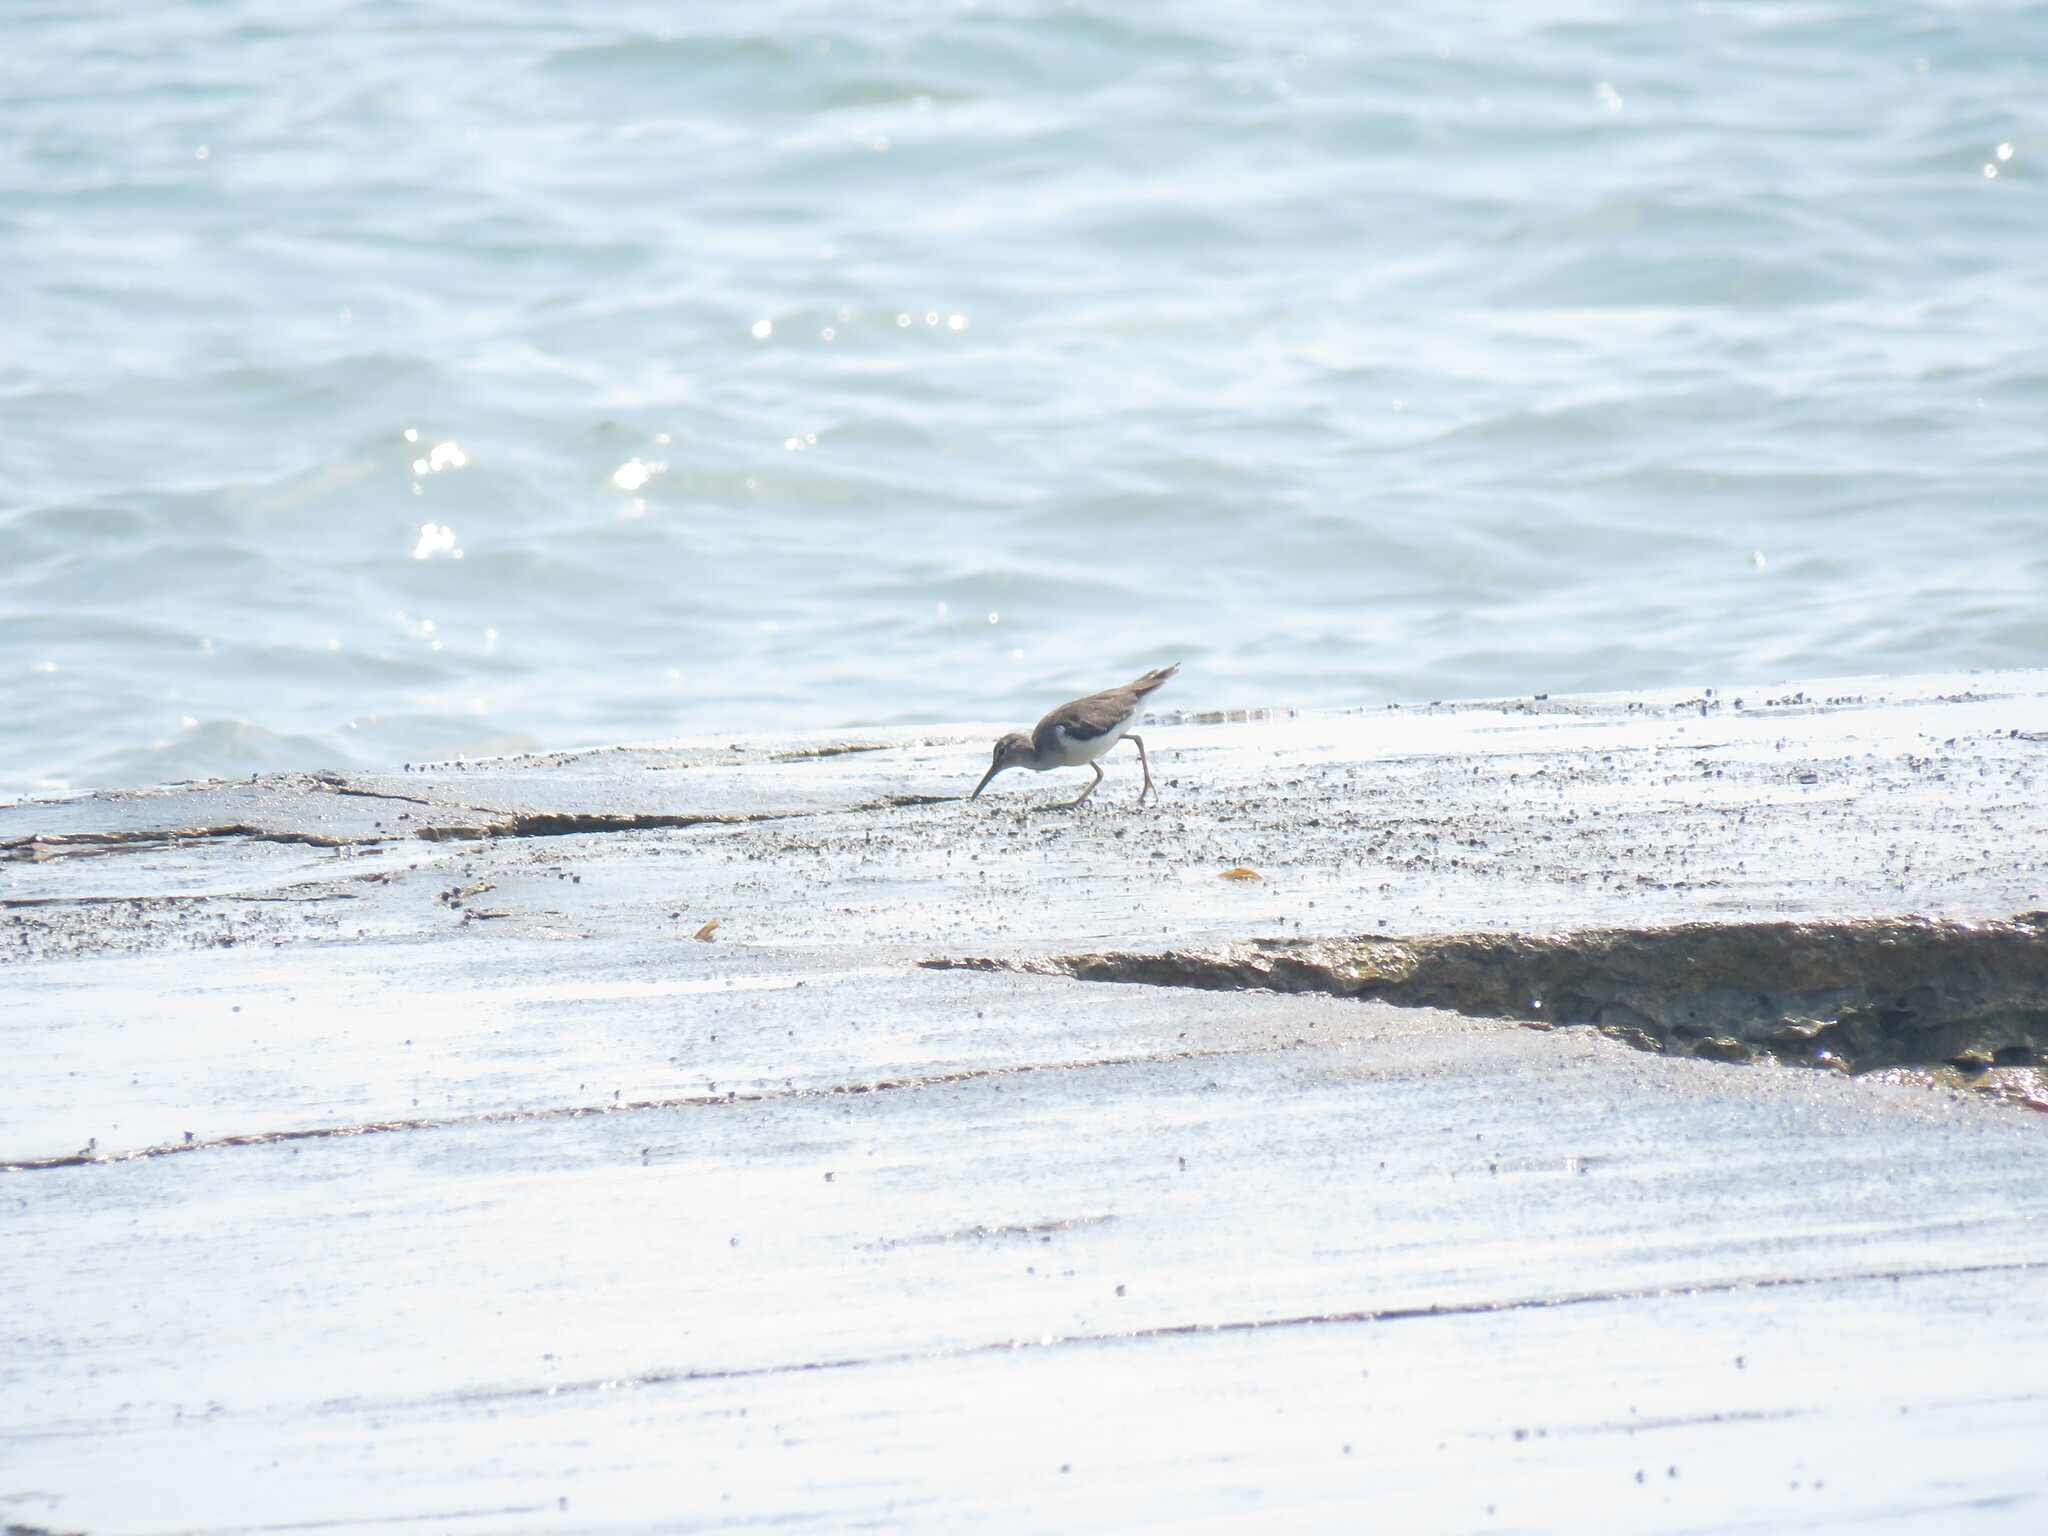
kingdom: Animalia
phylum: Chordata
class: Aves
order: Charadriiformes
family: Scolopacidae
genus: Actitis
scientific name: Actitis macularius
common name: Spotted sandpiper
